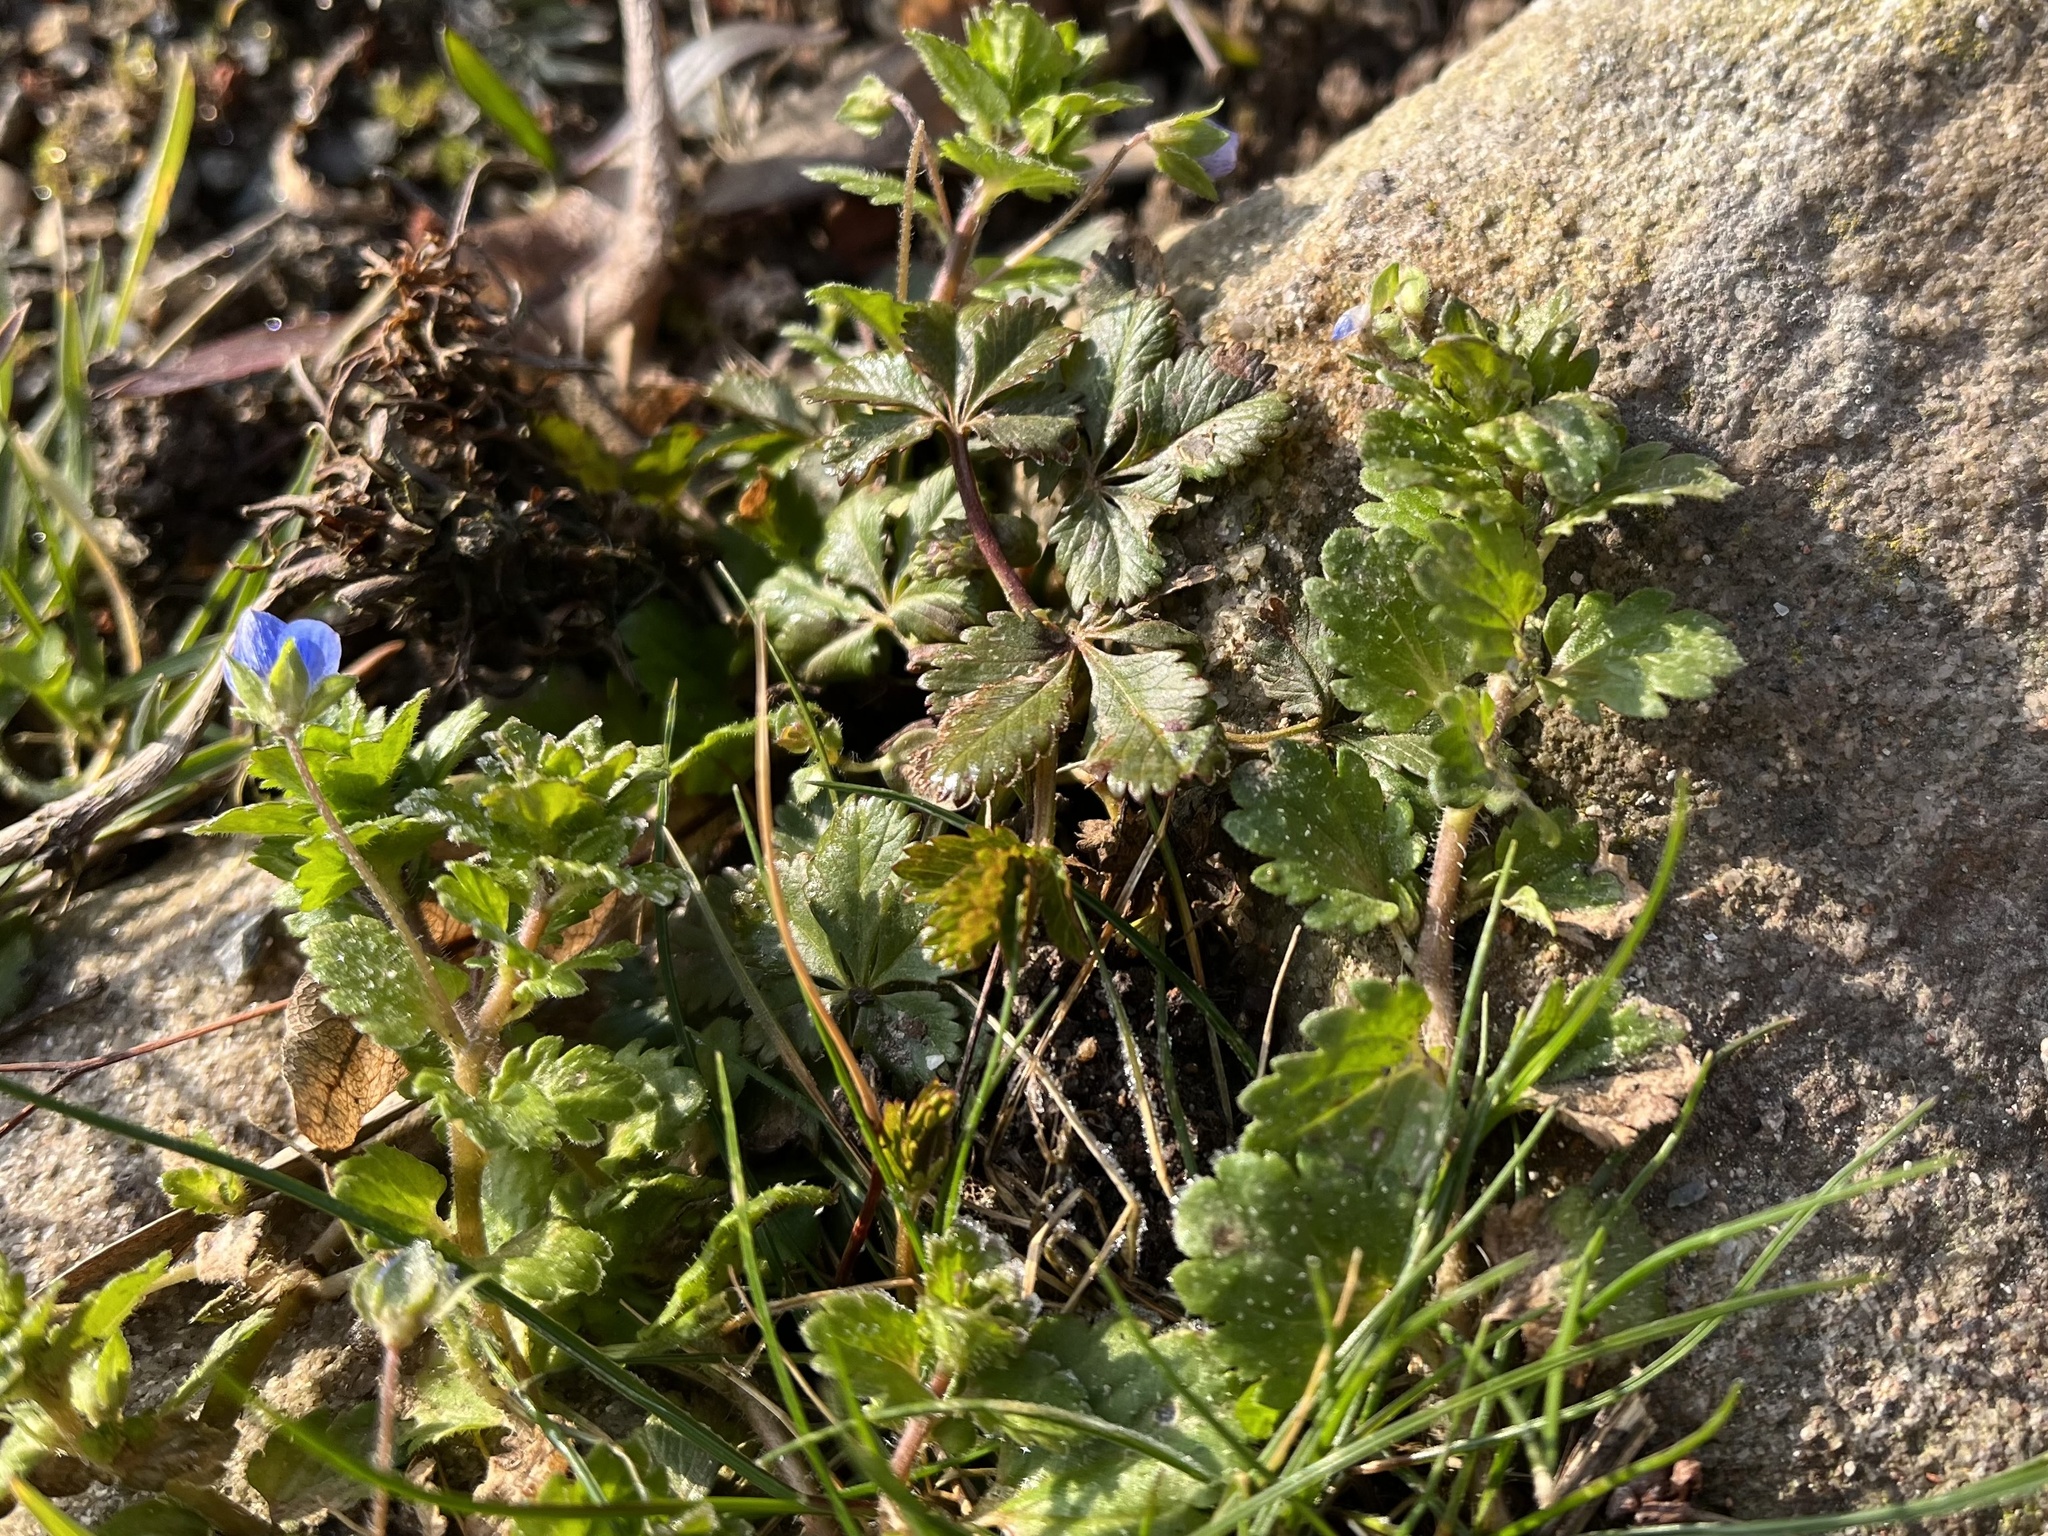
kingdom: Plantae
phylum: Tracheophyta
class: Magnoliopsida
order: Lamiales
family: Plantaginaceae
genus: Veronica
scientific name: Veronica persica
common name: Common field-speedwell
